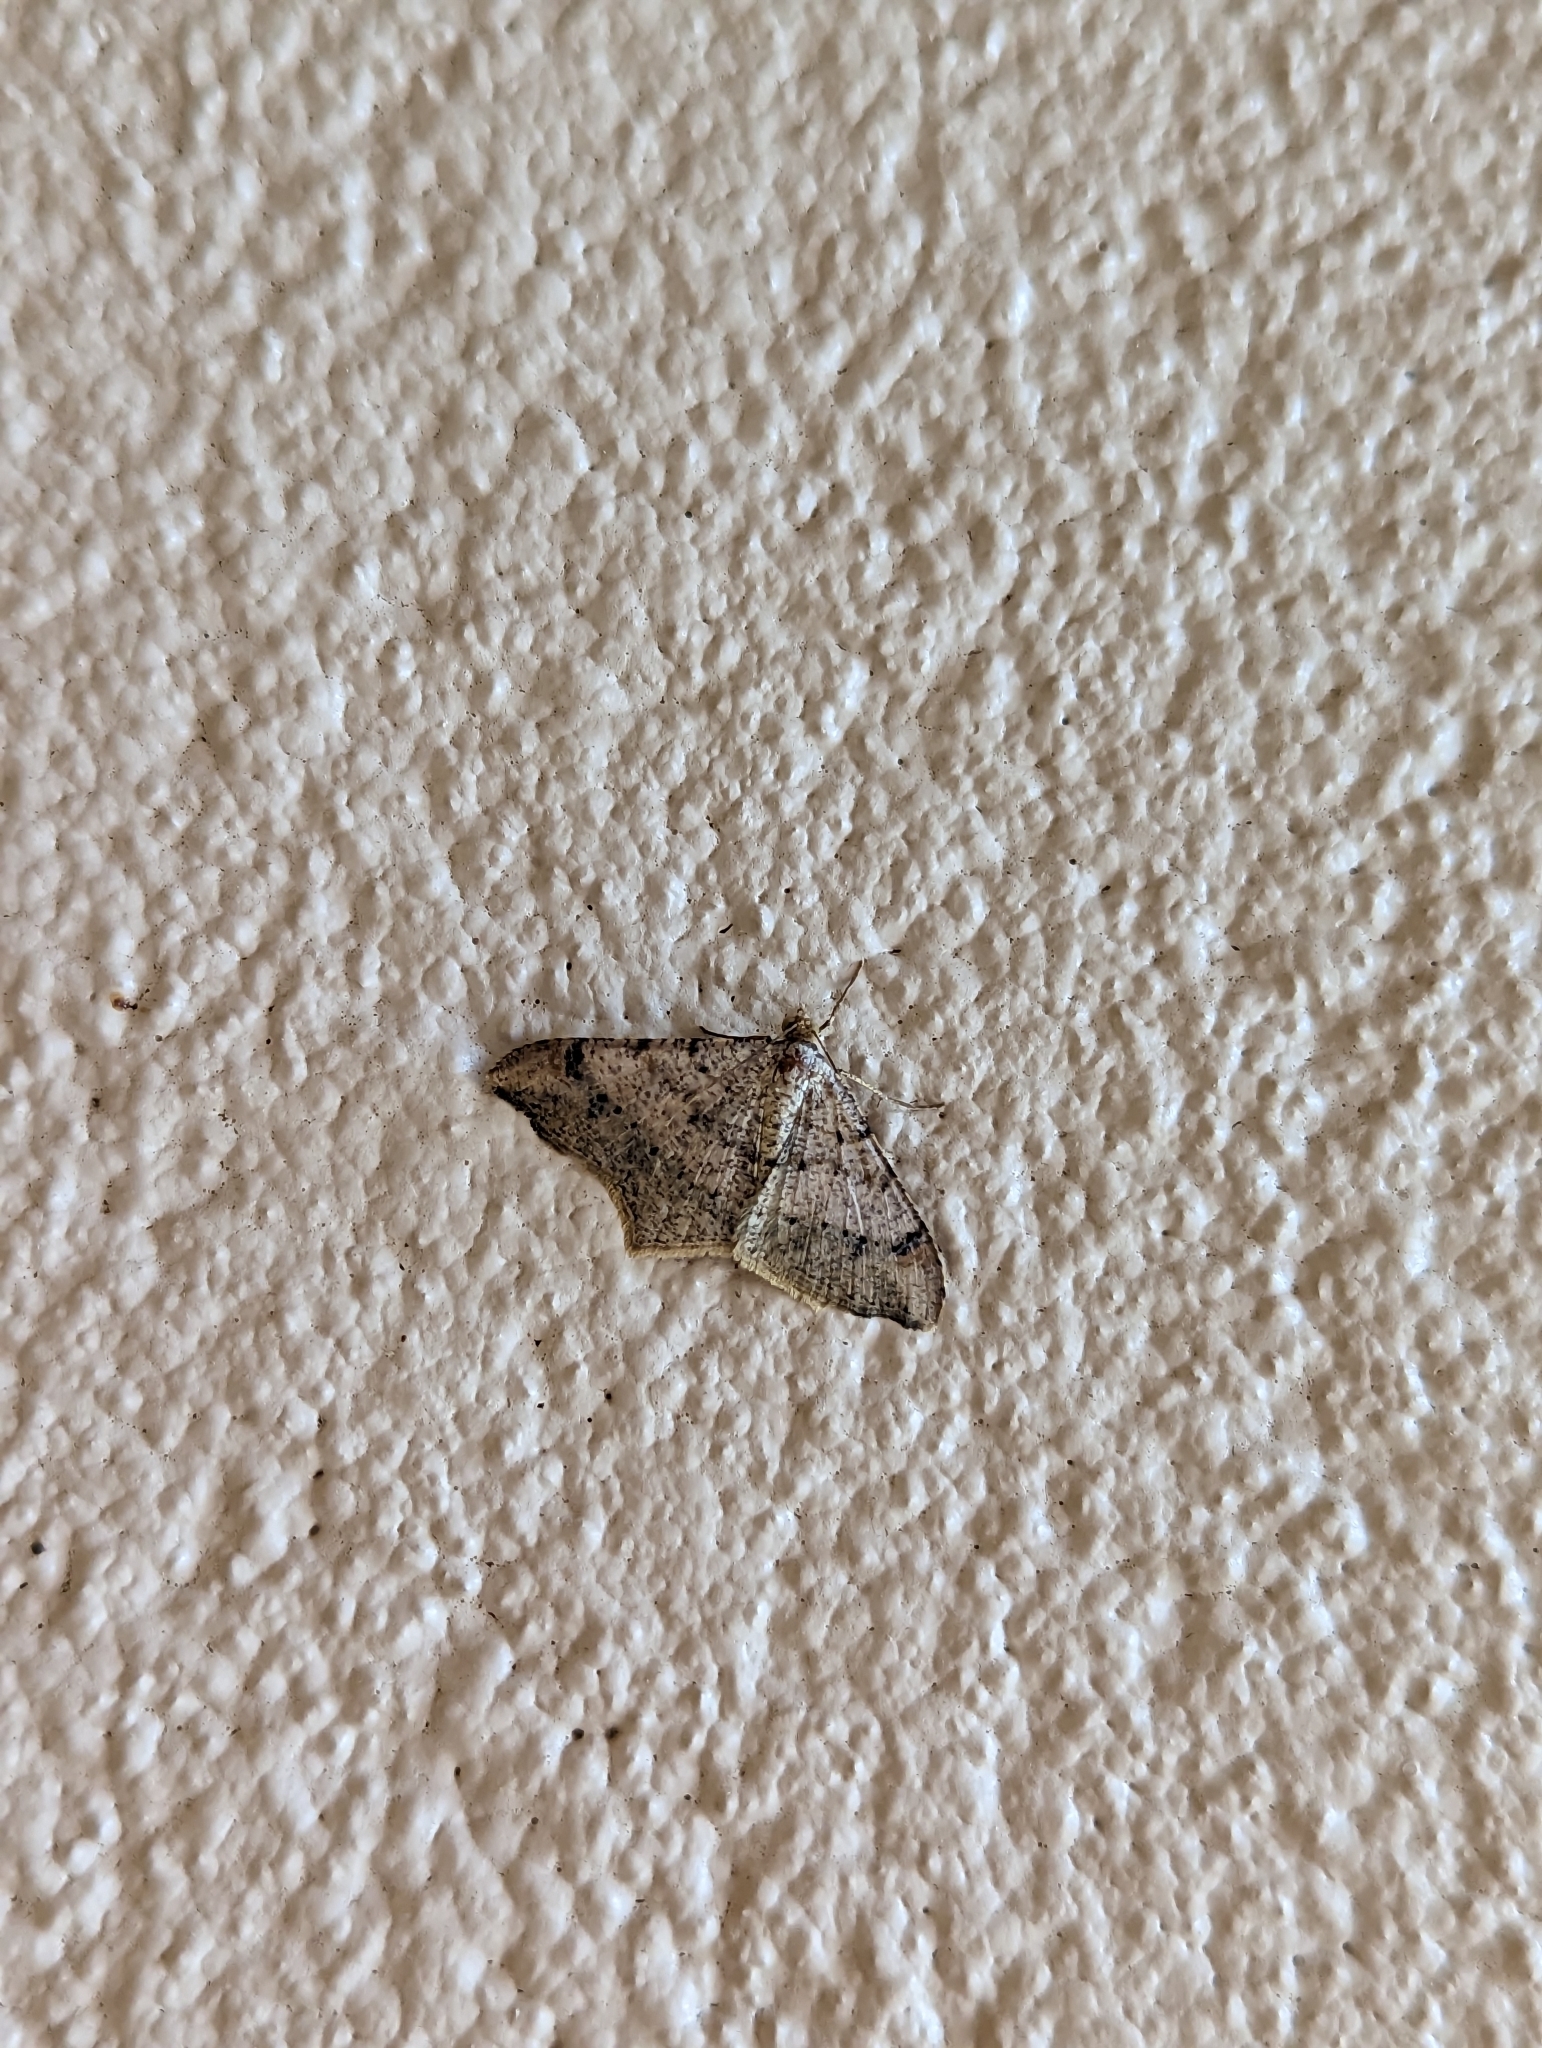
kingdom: Animalia
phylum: Arthropoda
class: Insecta
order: Lepidoptera
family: Geometridae
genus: Macaria
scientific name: Macaria abydata
